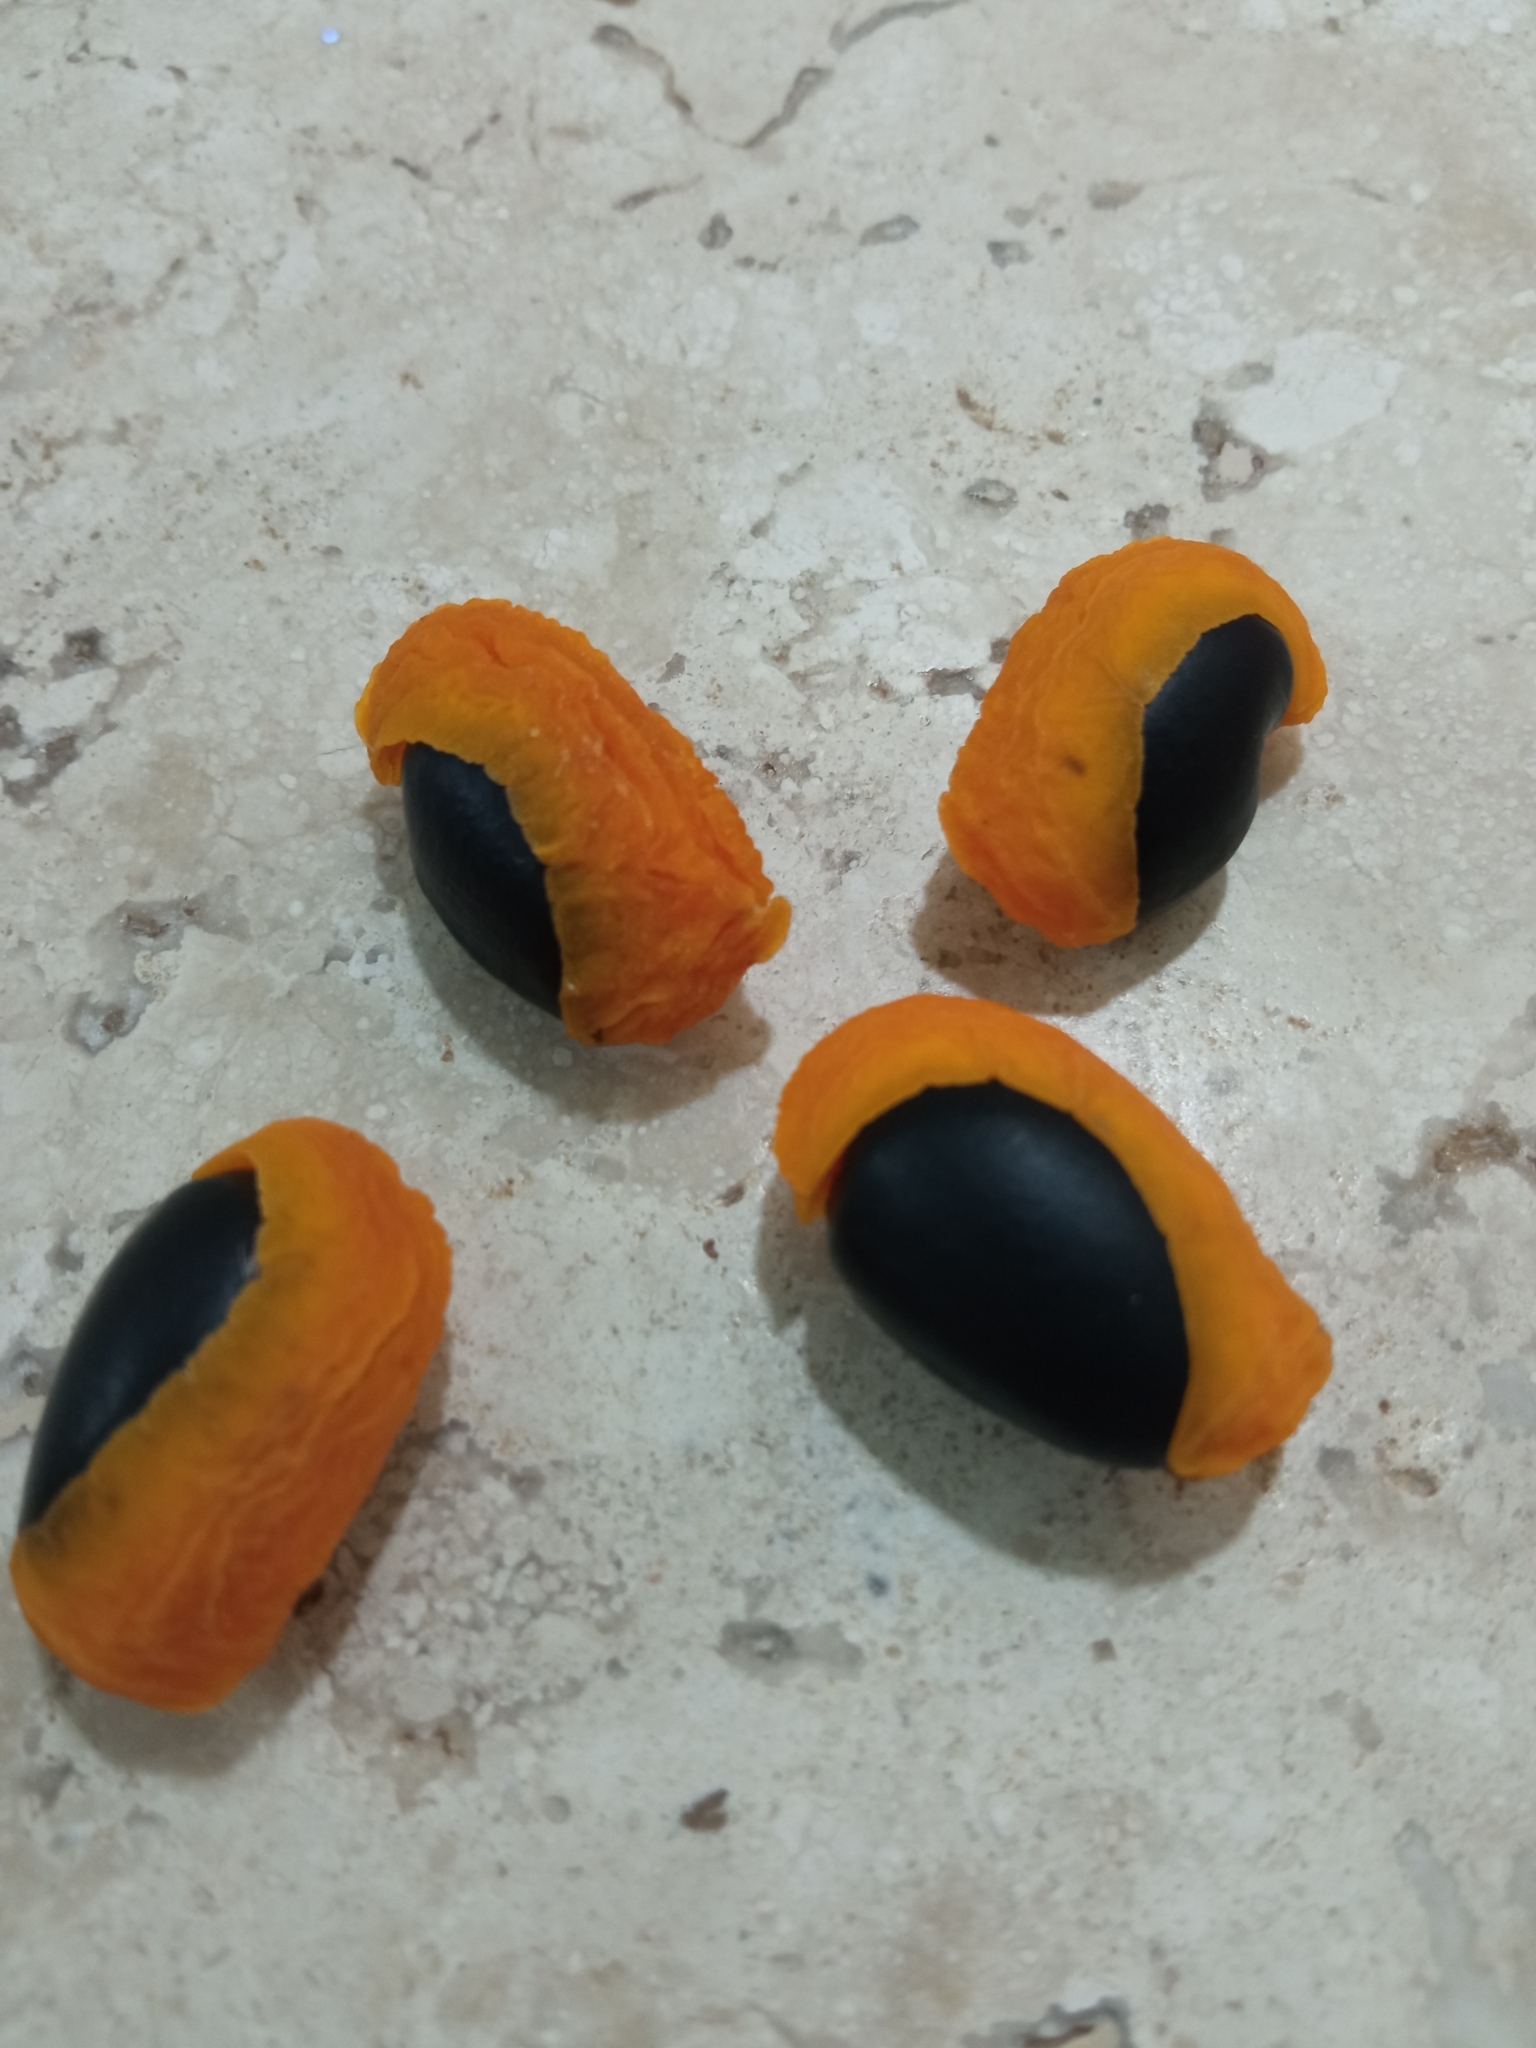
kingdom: Plantae
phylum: Tracheophyta
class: Magnoliopsida
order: Fabales
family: Fabaceae
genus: Copaifera
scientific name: Copaifera langsdorffii
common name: Brazilian diesel tree
